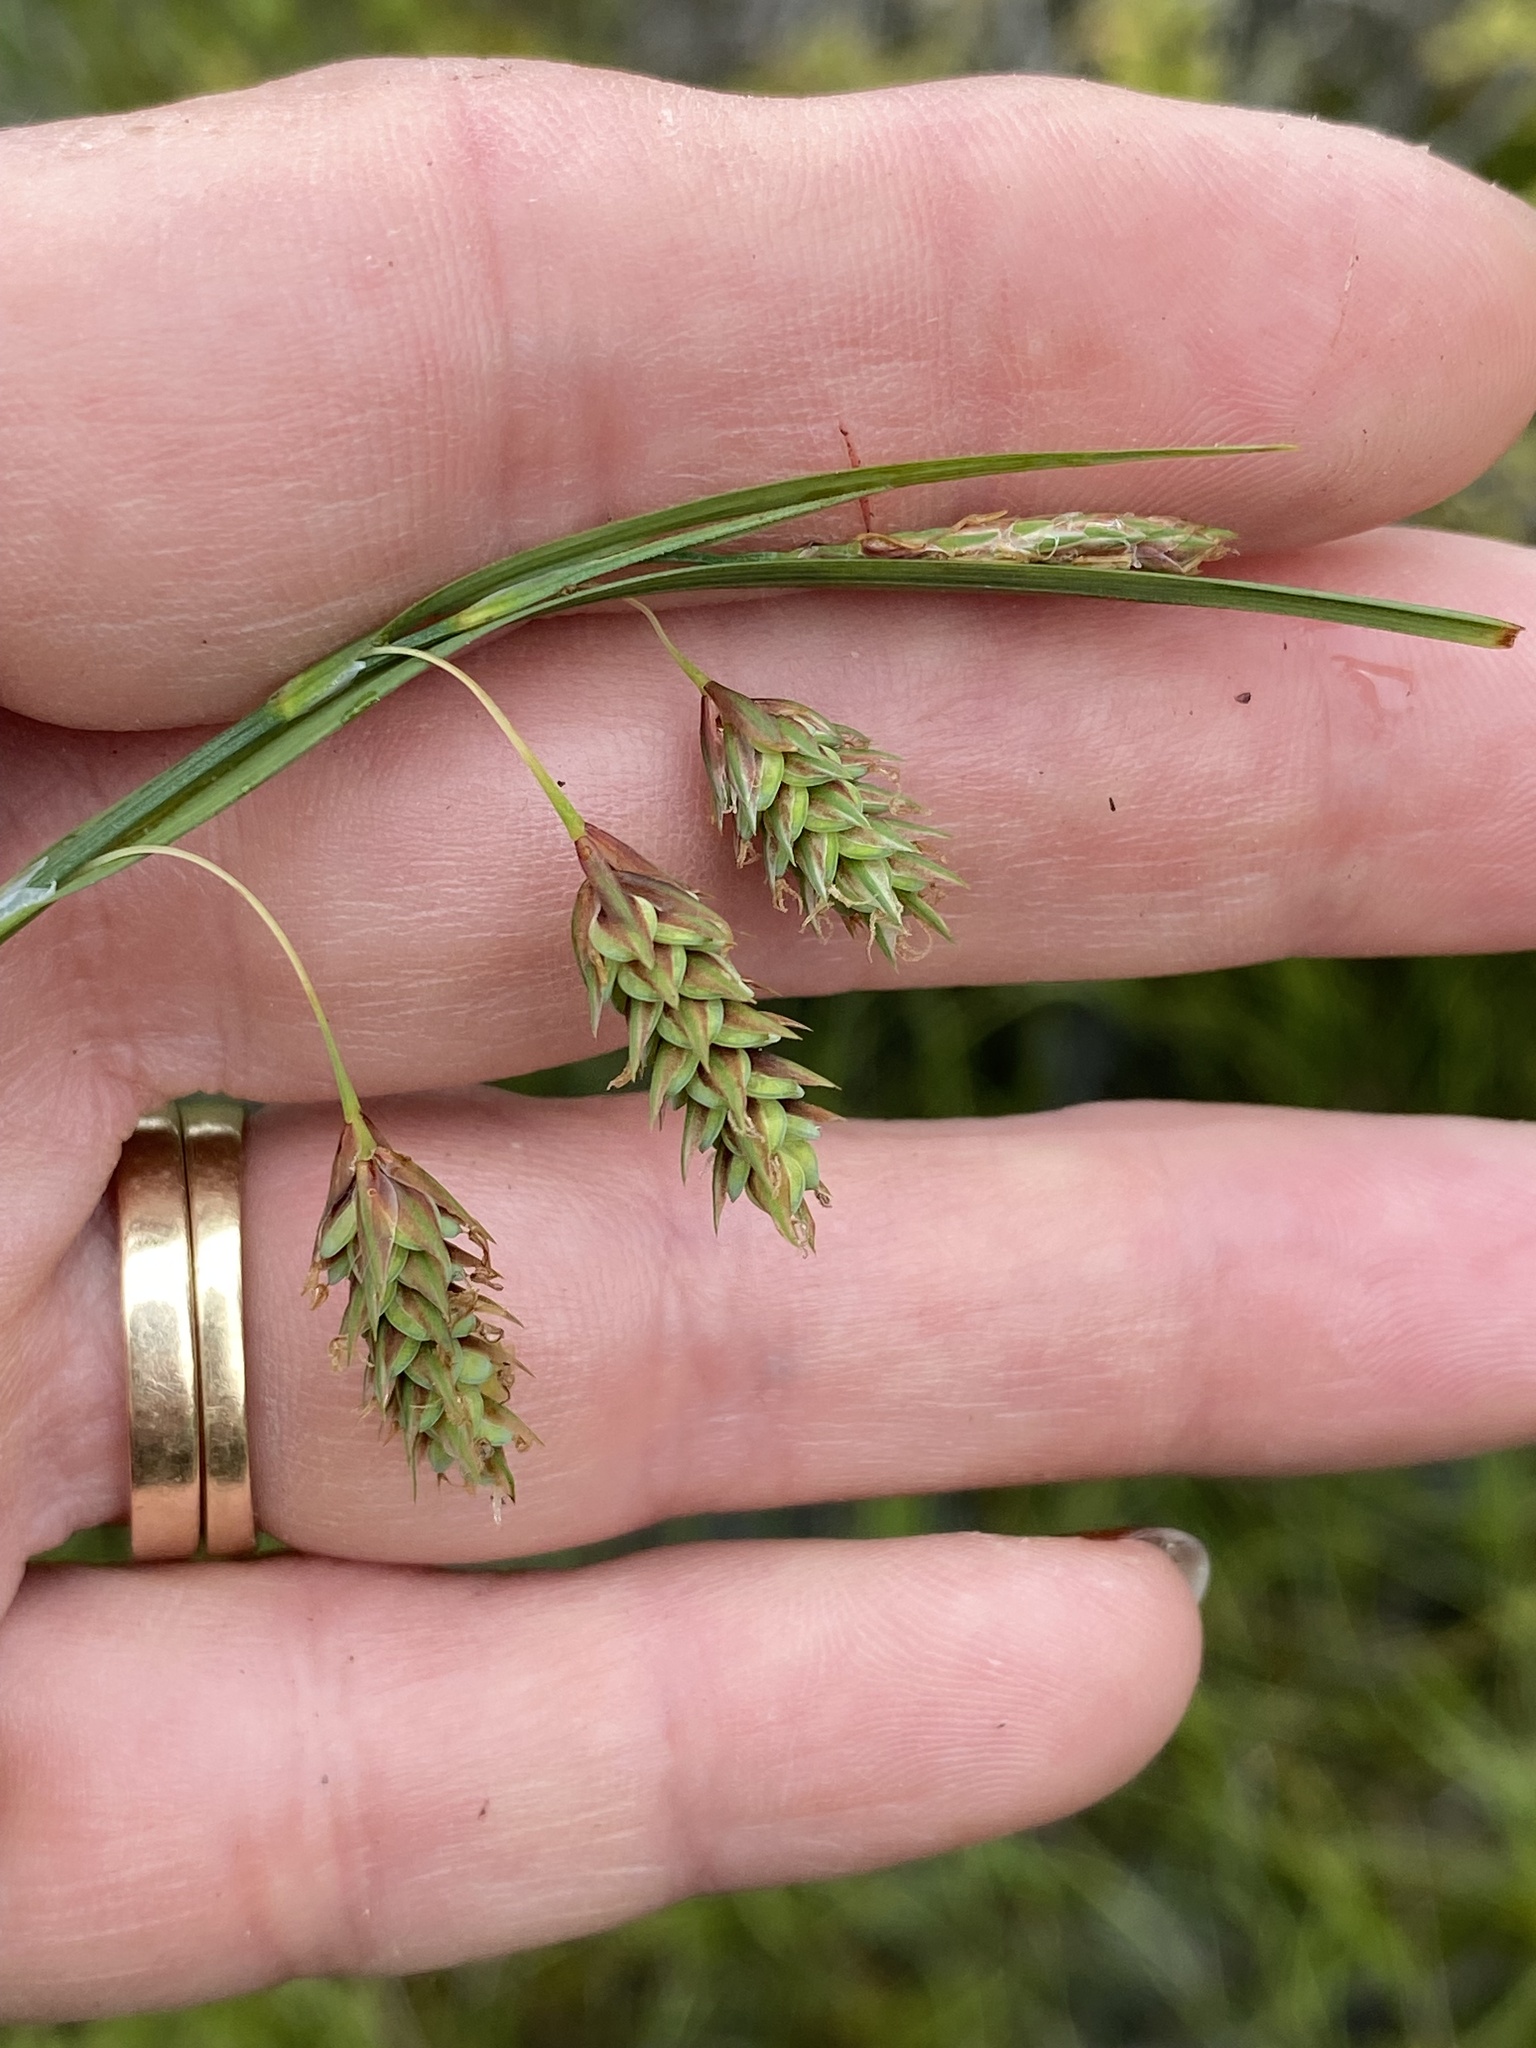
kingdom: Plantae
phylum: Tracheophyta
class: Liliopsida
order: Poales
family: Cyperaceae
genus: Carex
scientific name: Carex magellanica
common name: Bog sedge
